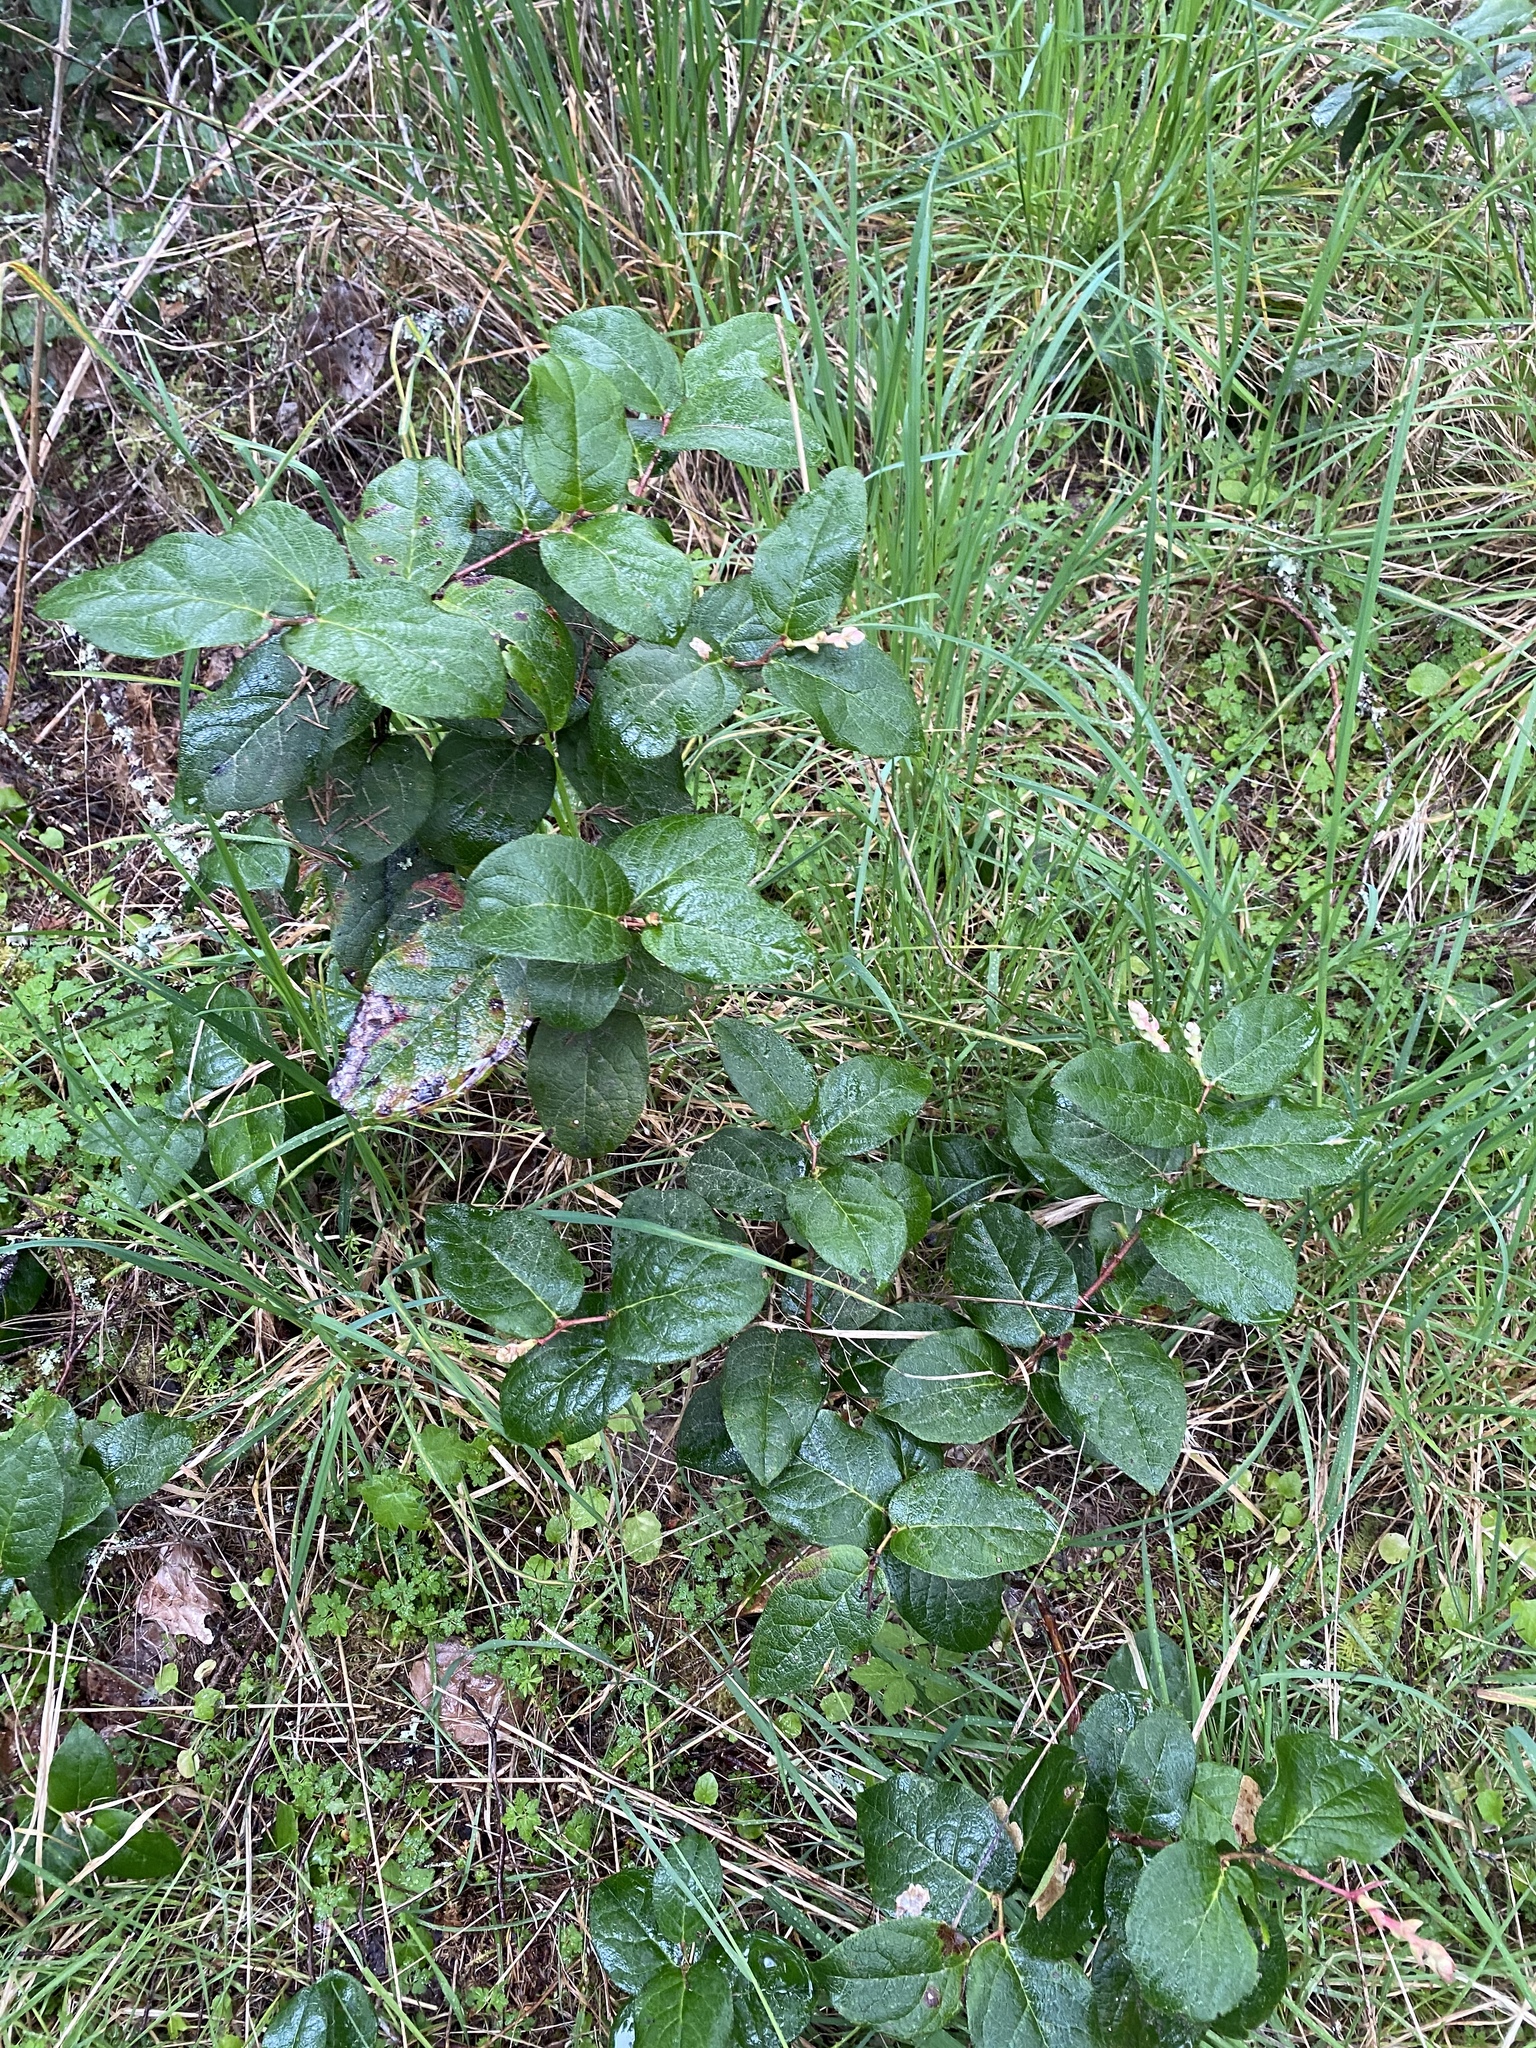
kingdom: Plantae
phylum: Tracheophyta
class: Magnoliopsida
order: Ericales
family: Ericaceae
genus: Gaultheria
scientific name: Gaultheria shallon
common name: Shallon
